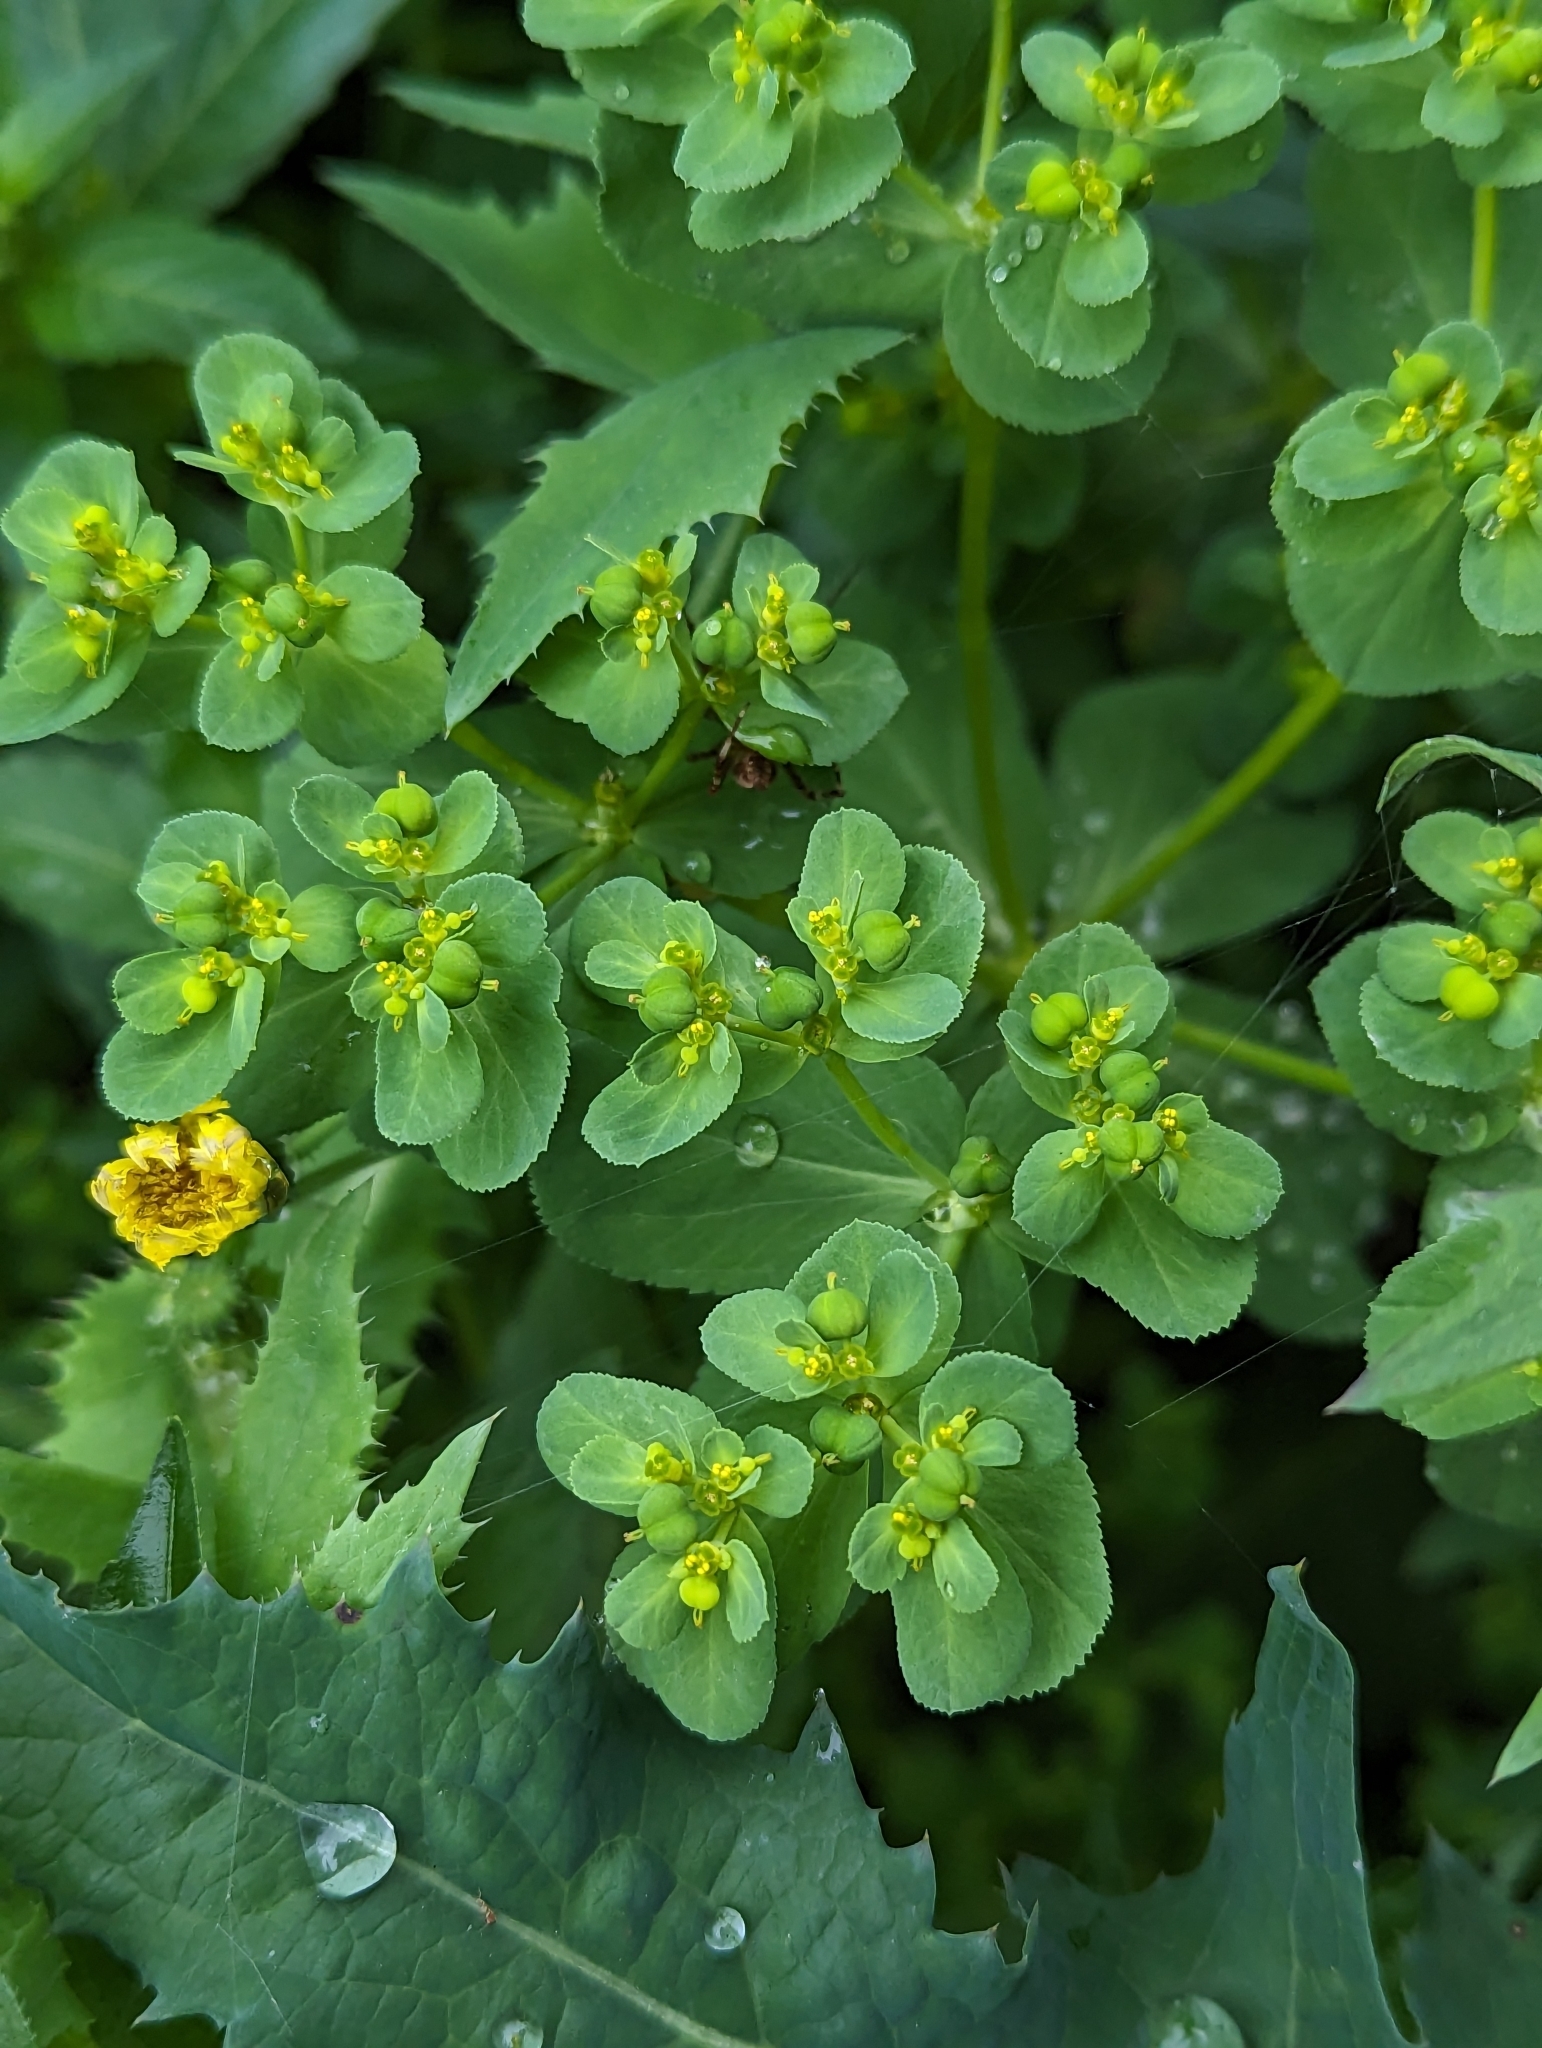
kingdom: Plantae
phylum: Tracheophyta
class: Magnoliopsida
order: Malpighiales
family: Euphorbiaceae
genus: Euphorbia
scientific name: Euphorbia helioscopia
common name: Sun spurge
